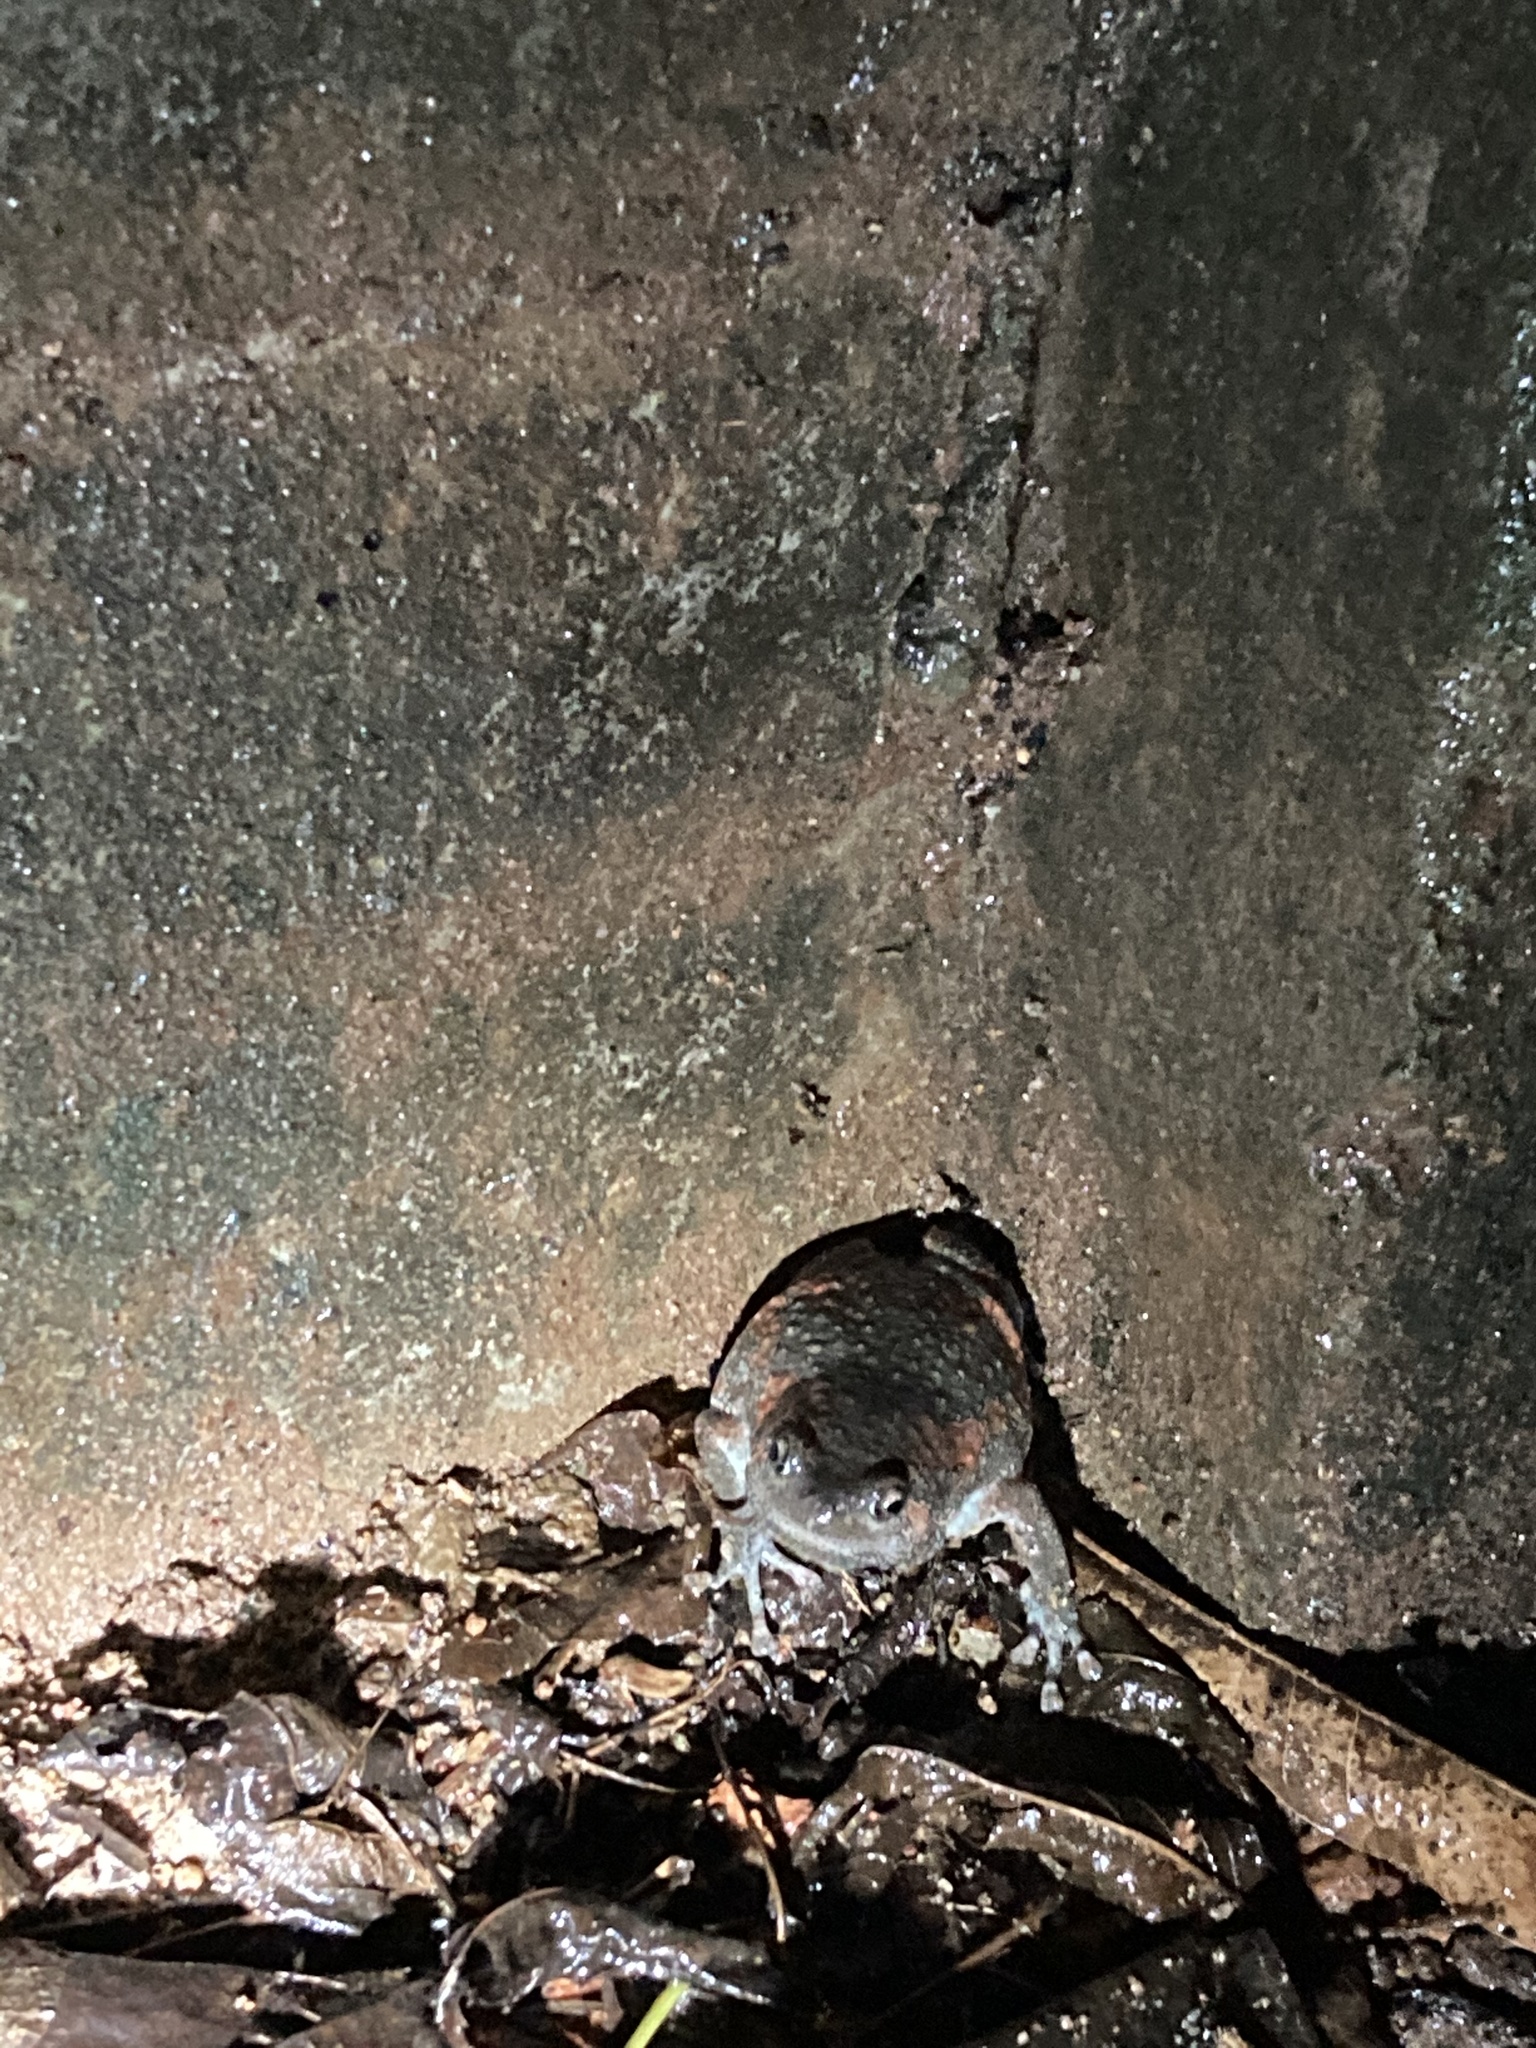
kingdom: Animalia
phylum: Chordata
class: Amphibia
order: Anura
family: Microhylidae
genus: Uperodon
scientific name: Uperodon taprobanicus
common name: Ceylon kaloula
